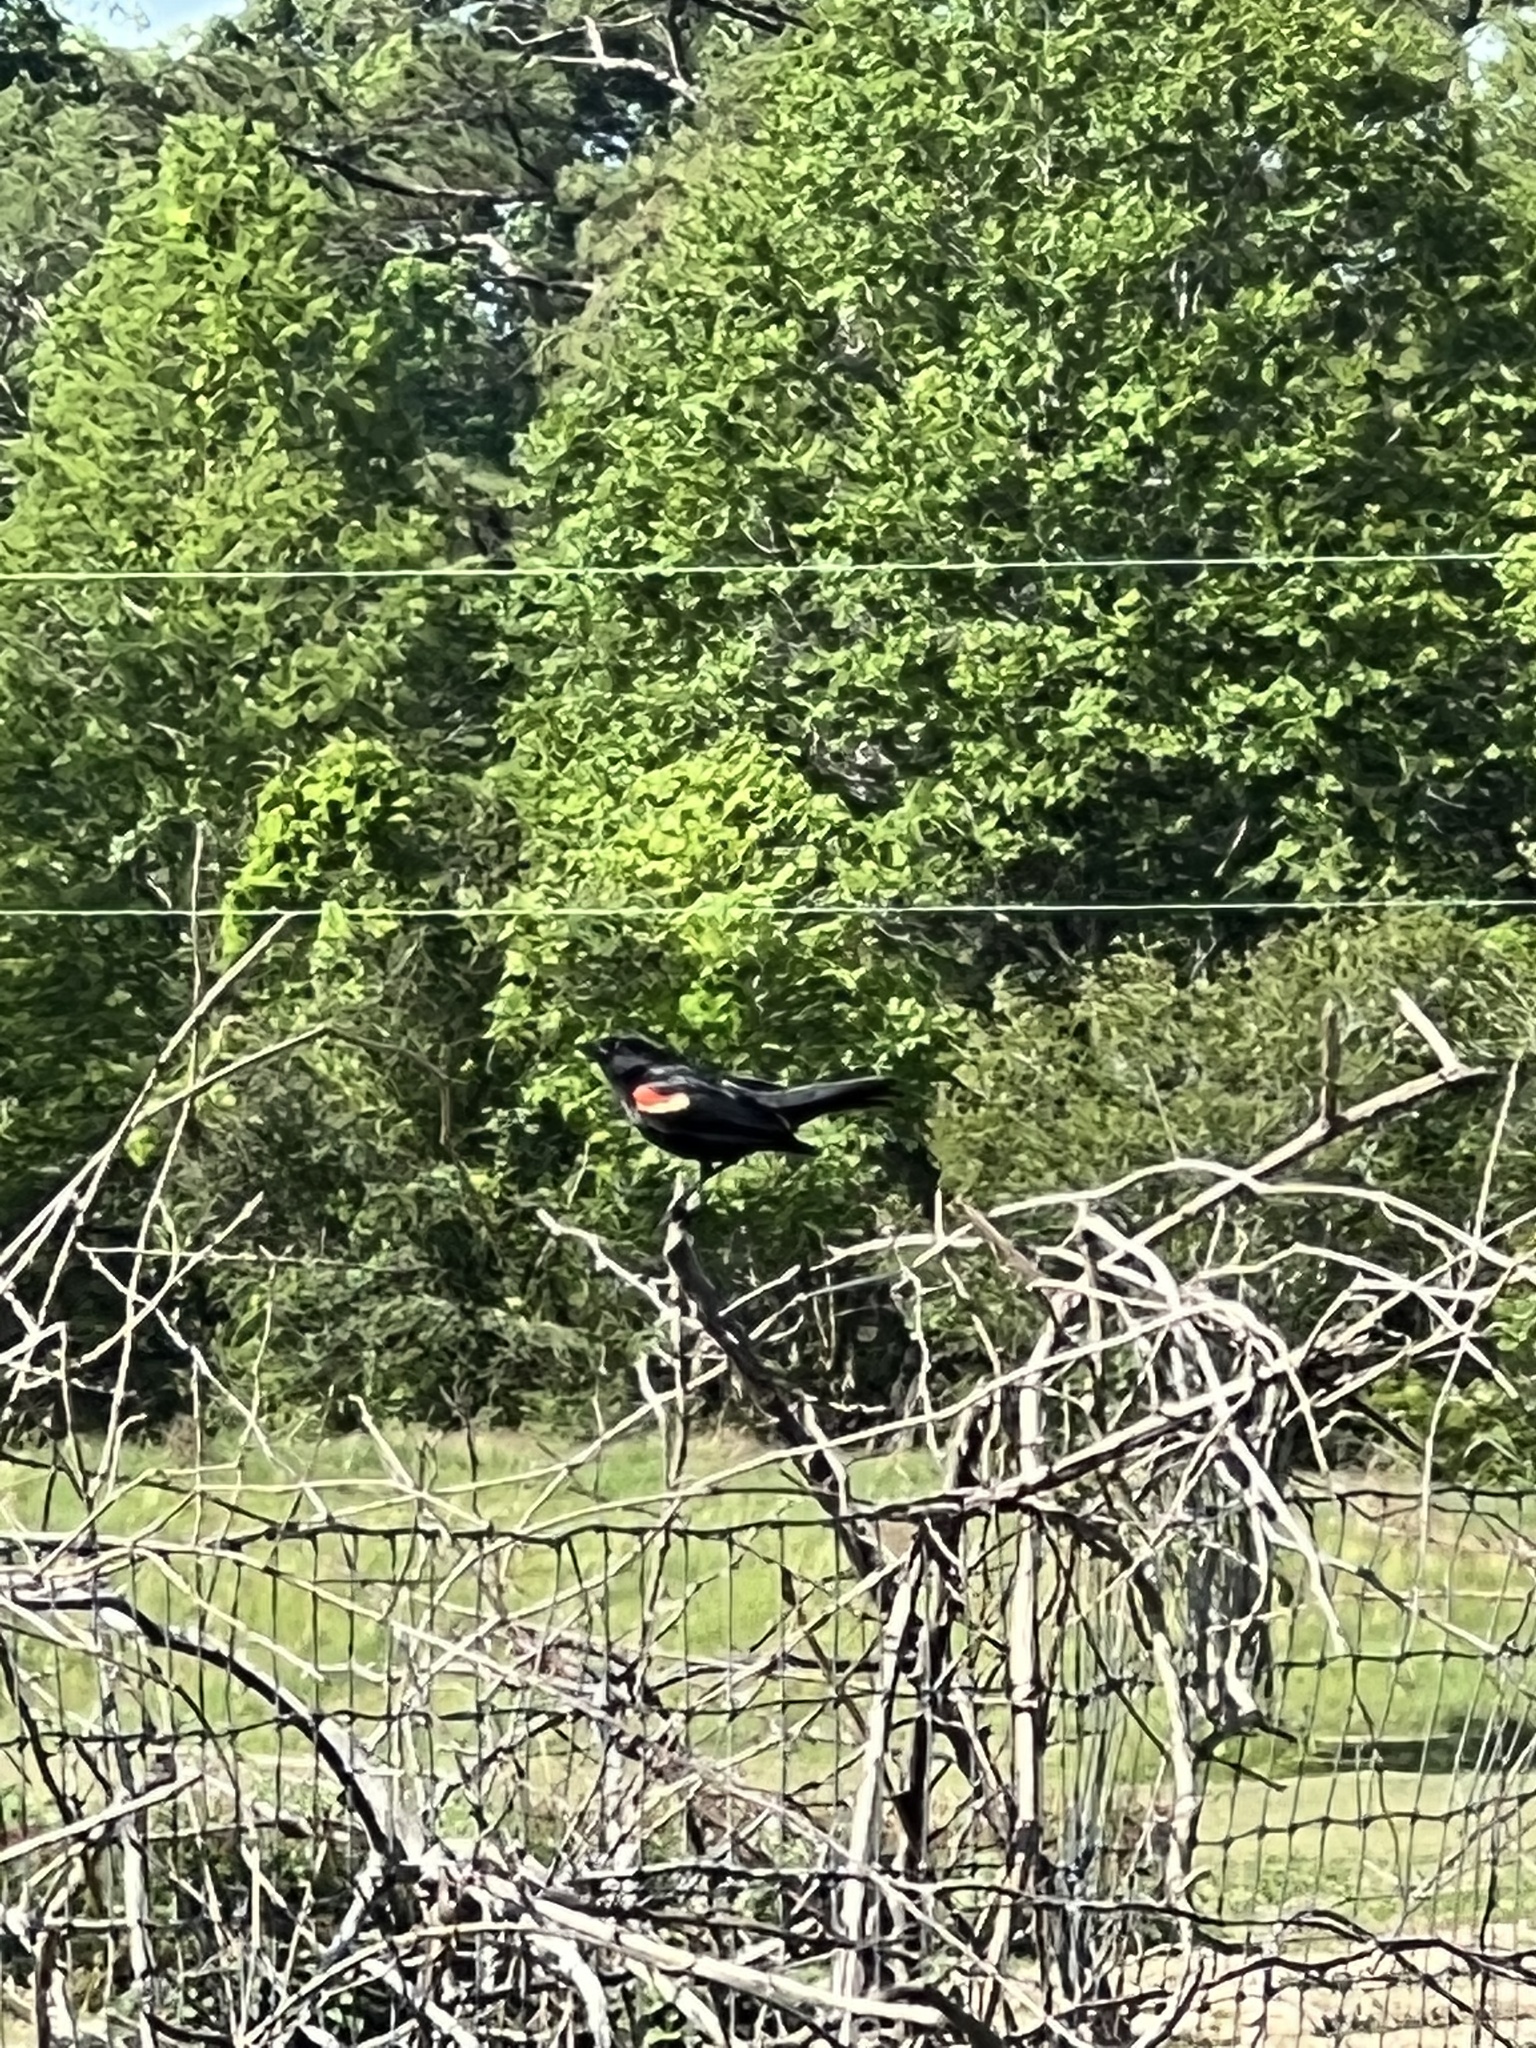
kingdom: Animalia
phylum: Chordata
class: Aves
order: Passeriformes
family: Icteridae
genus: Agelaius
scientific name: Agelaius phoeniceus
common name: Red-winged blackbird
